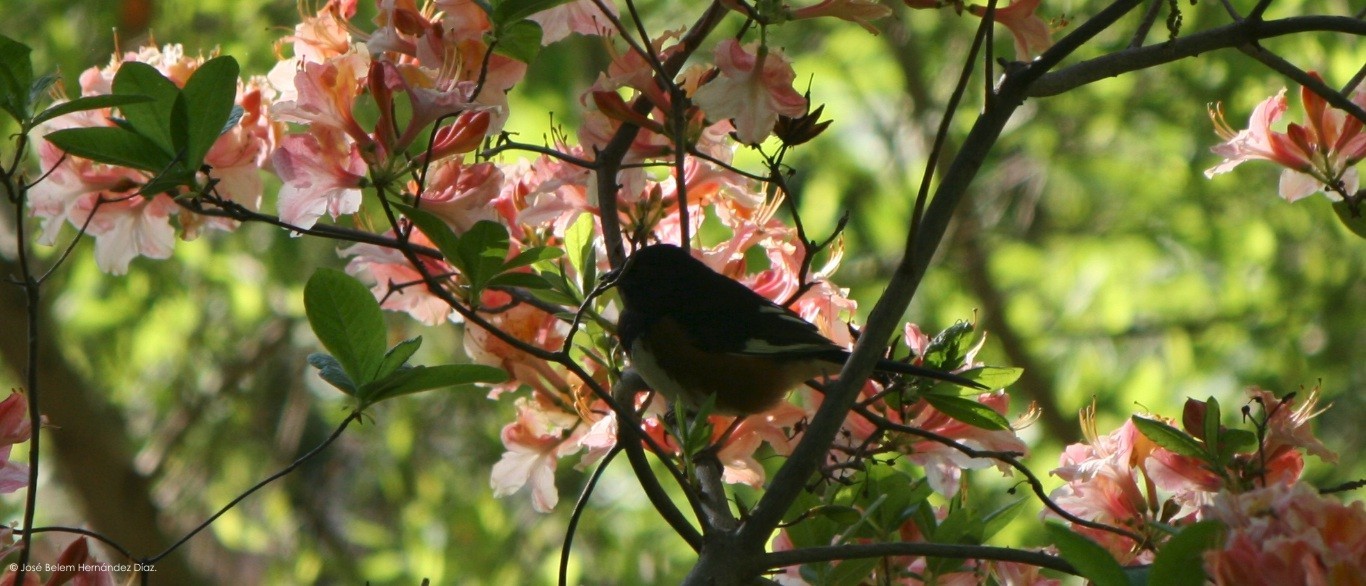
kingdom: Animalia
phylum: Chordata
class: Aves
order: Passeriformes
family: Passerellidae
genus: Pipilo
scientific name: Pipilo erythrophthalmus
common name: Eastern towhee
